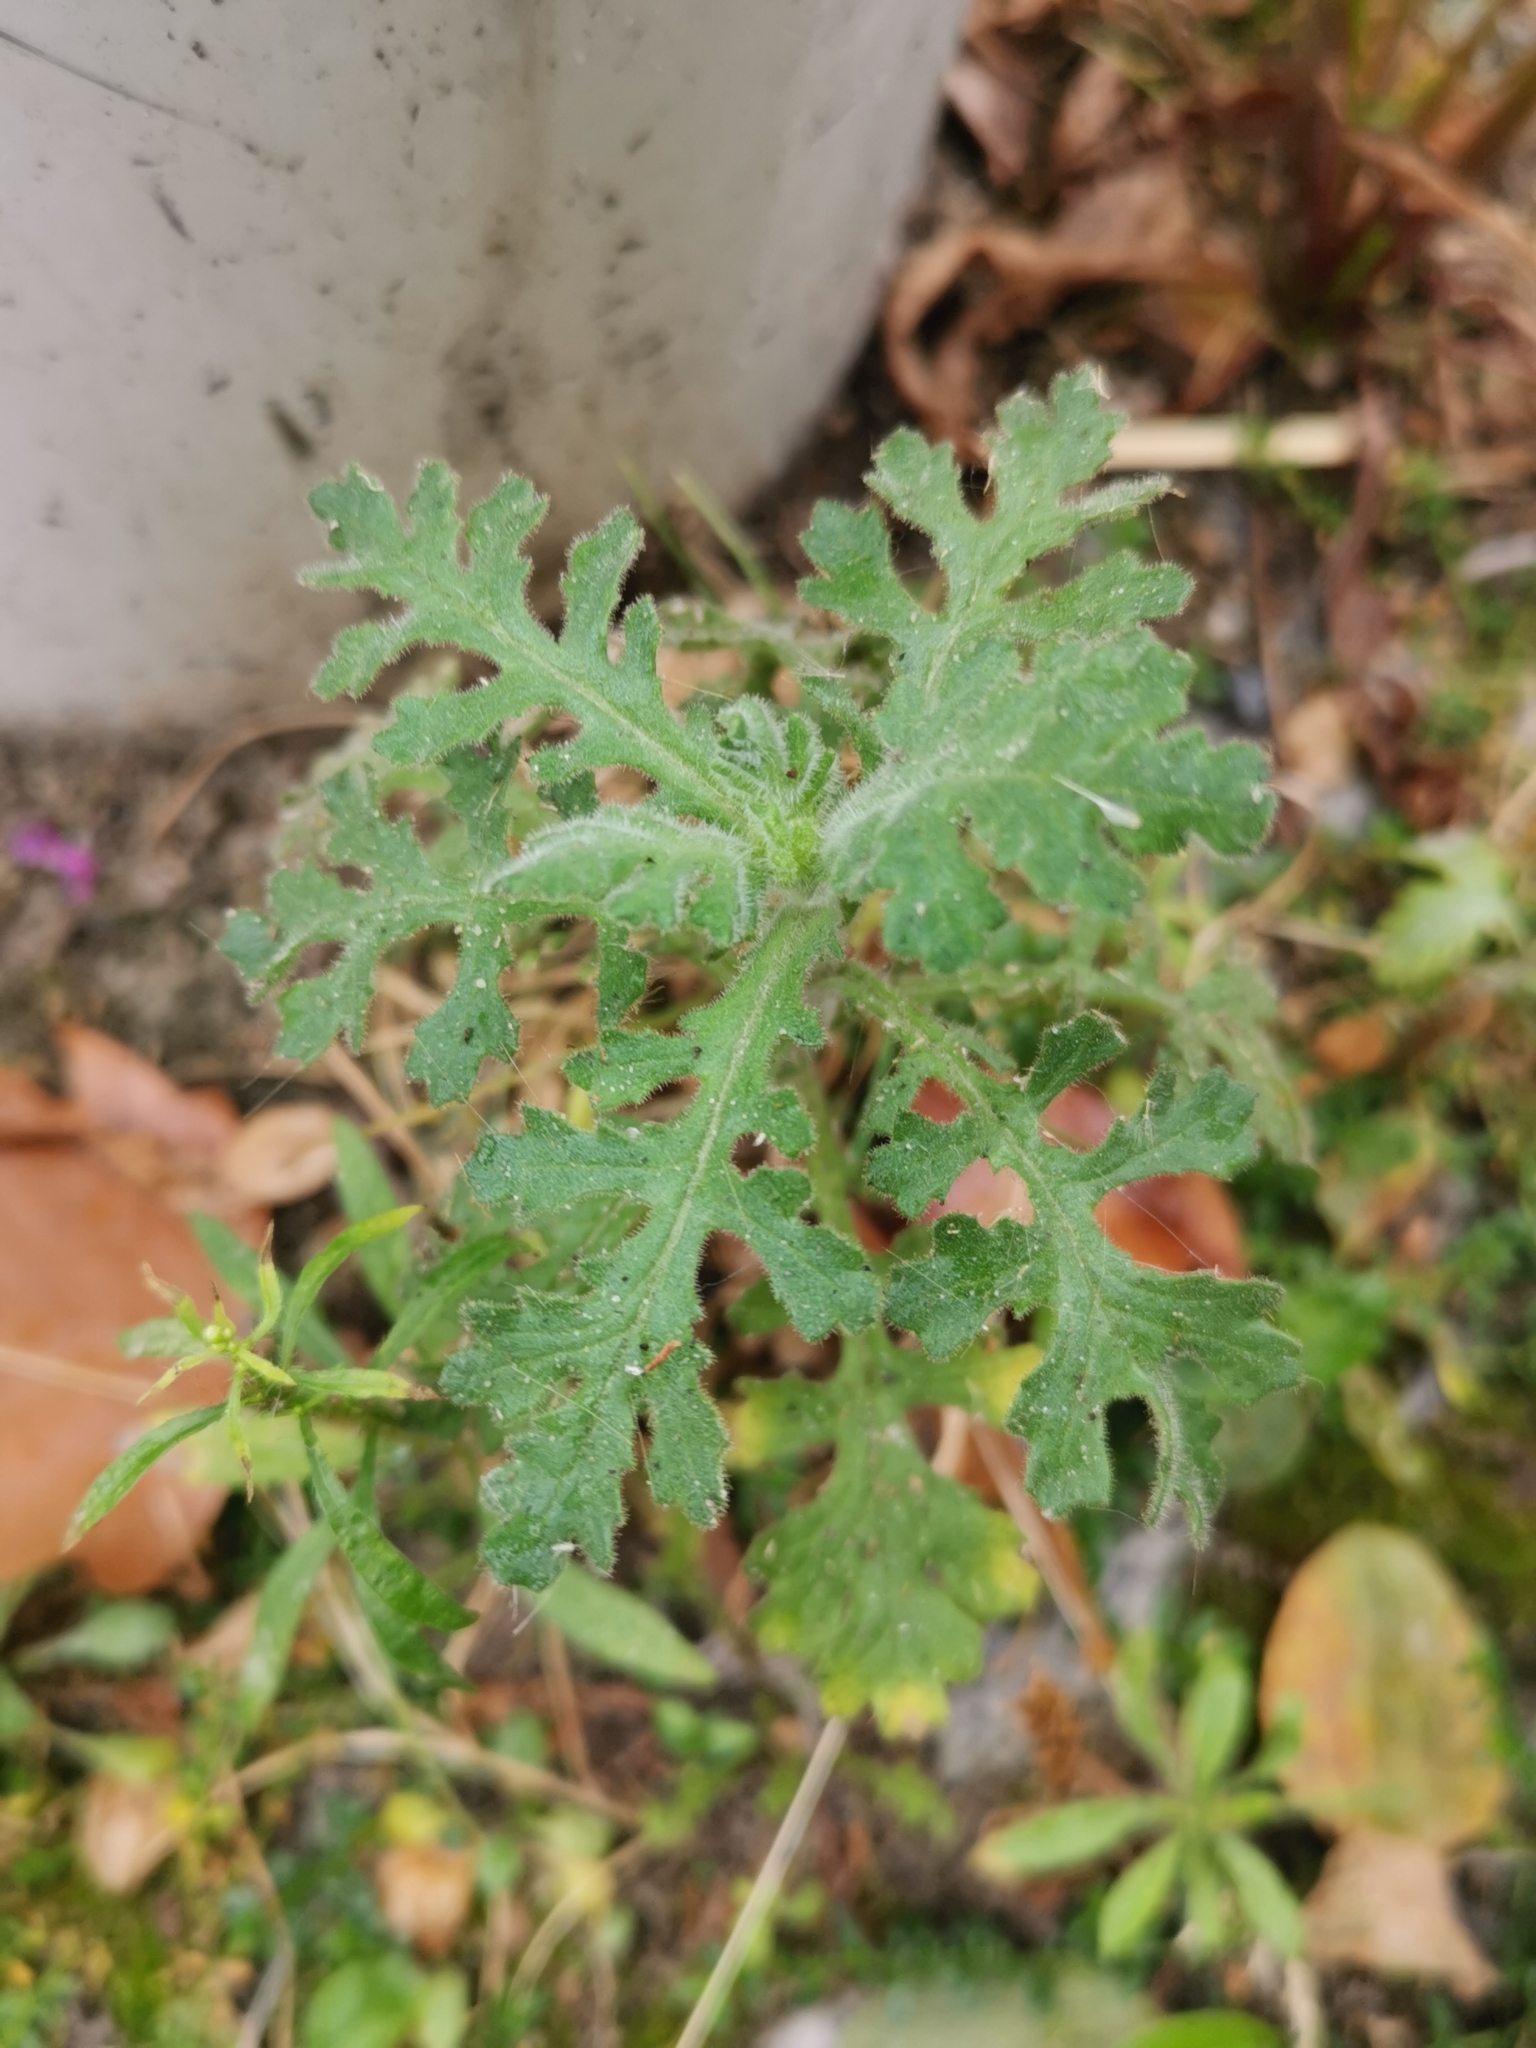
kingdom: Plantae
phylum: Tracheophyta
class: Magnoliopsida
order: Asterales
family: Asteraceae
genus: Senecio
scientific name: Senecio viscosus
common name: Sticky groundsel
